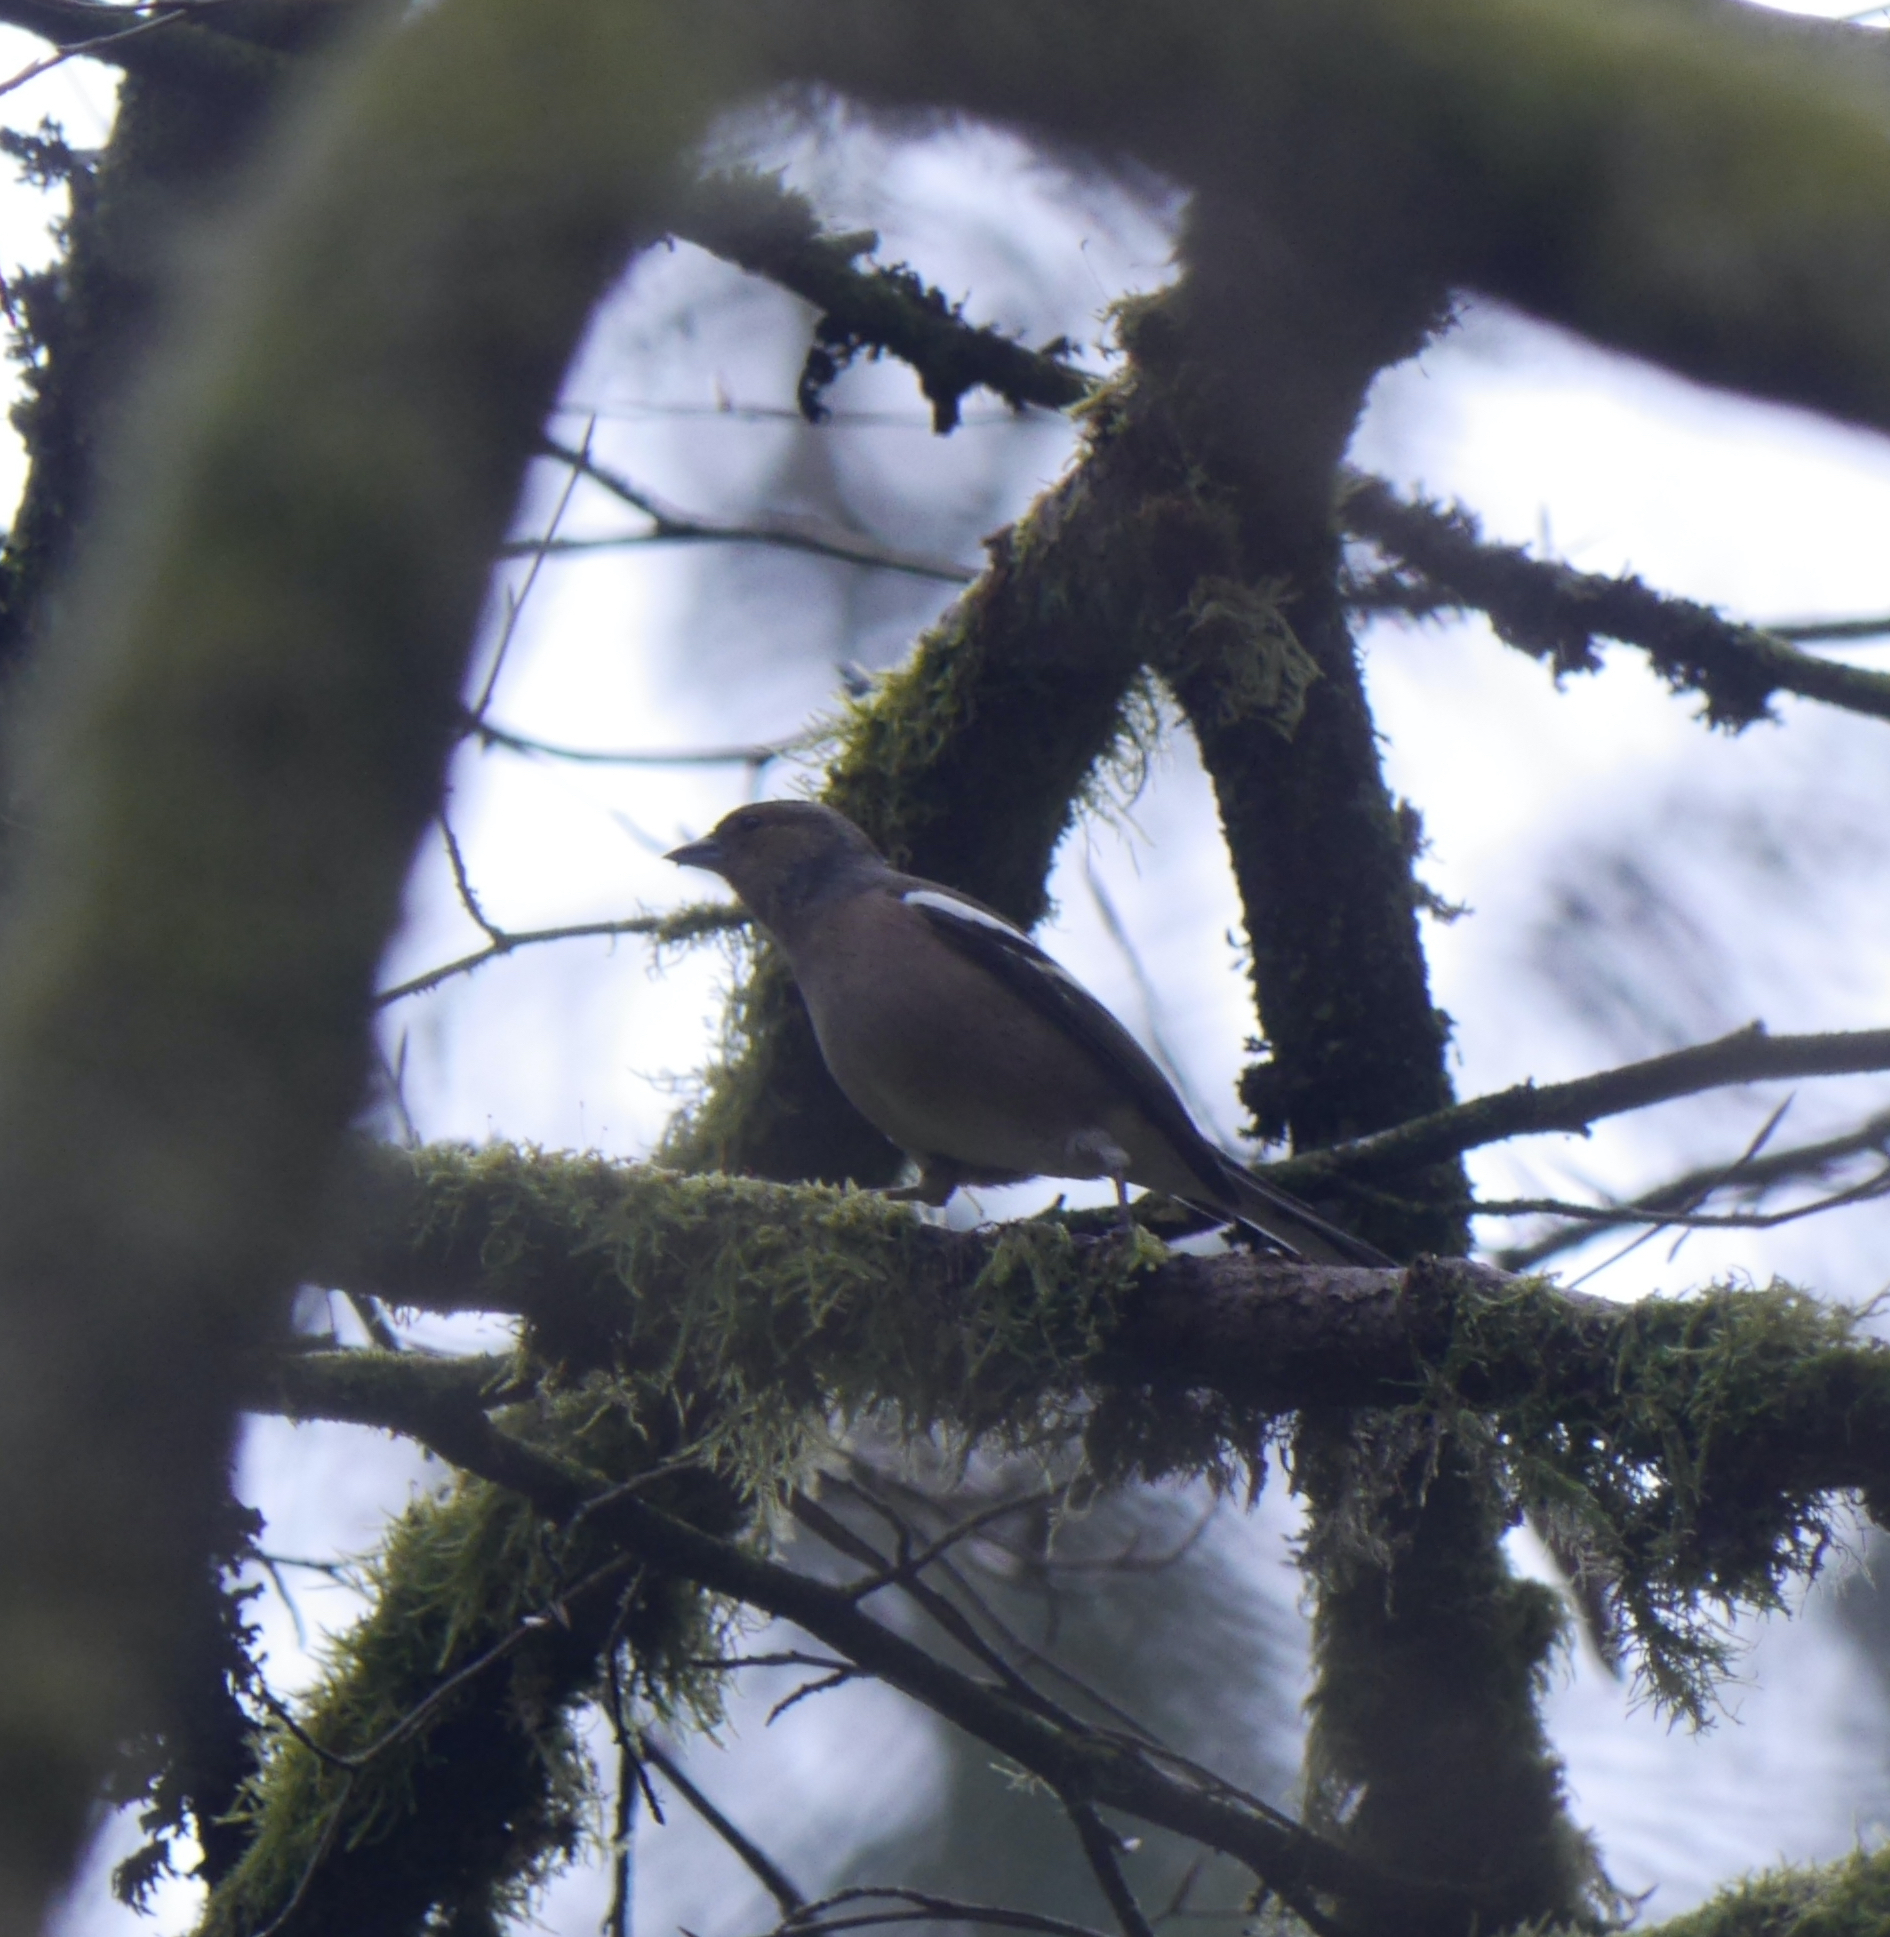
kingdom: Animalia
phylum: Chordata
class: Aves
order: Passeriformes
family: Fringillidae
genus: Fringilla
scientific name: Fringilla coelebs
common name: Common chaffinch
